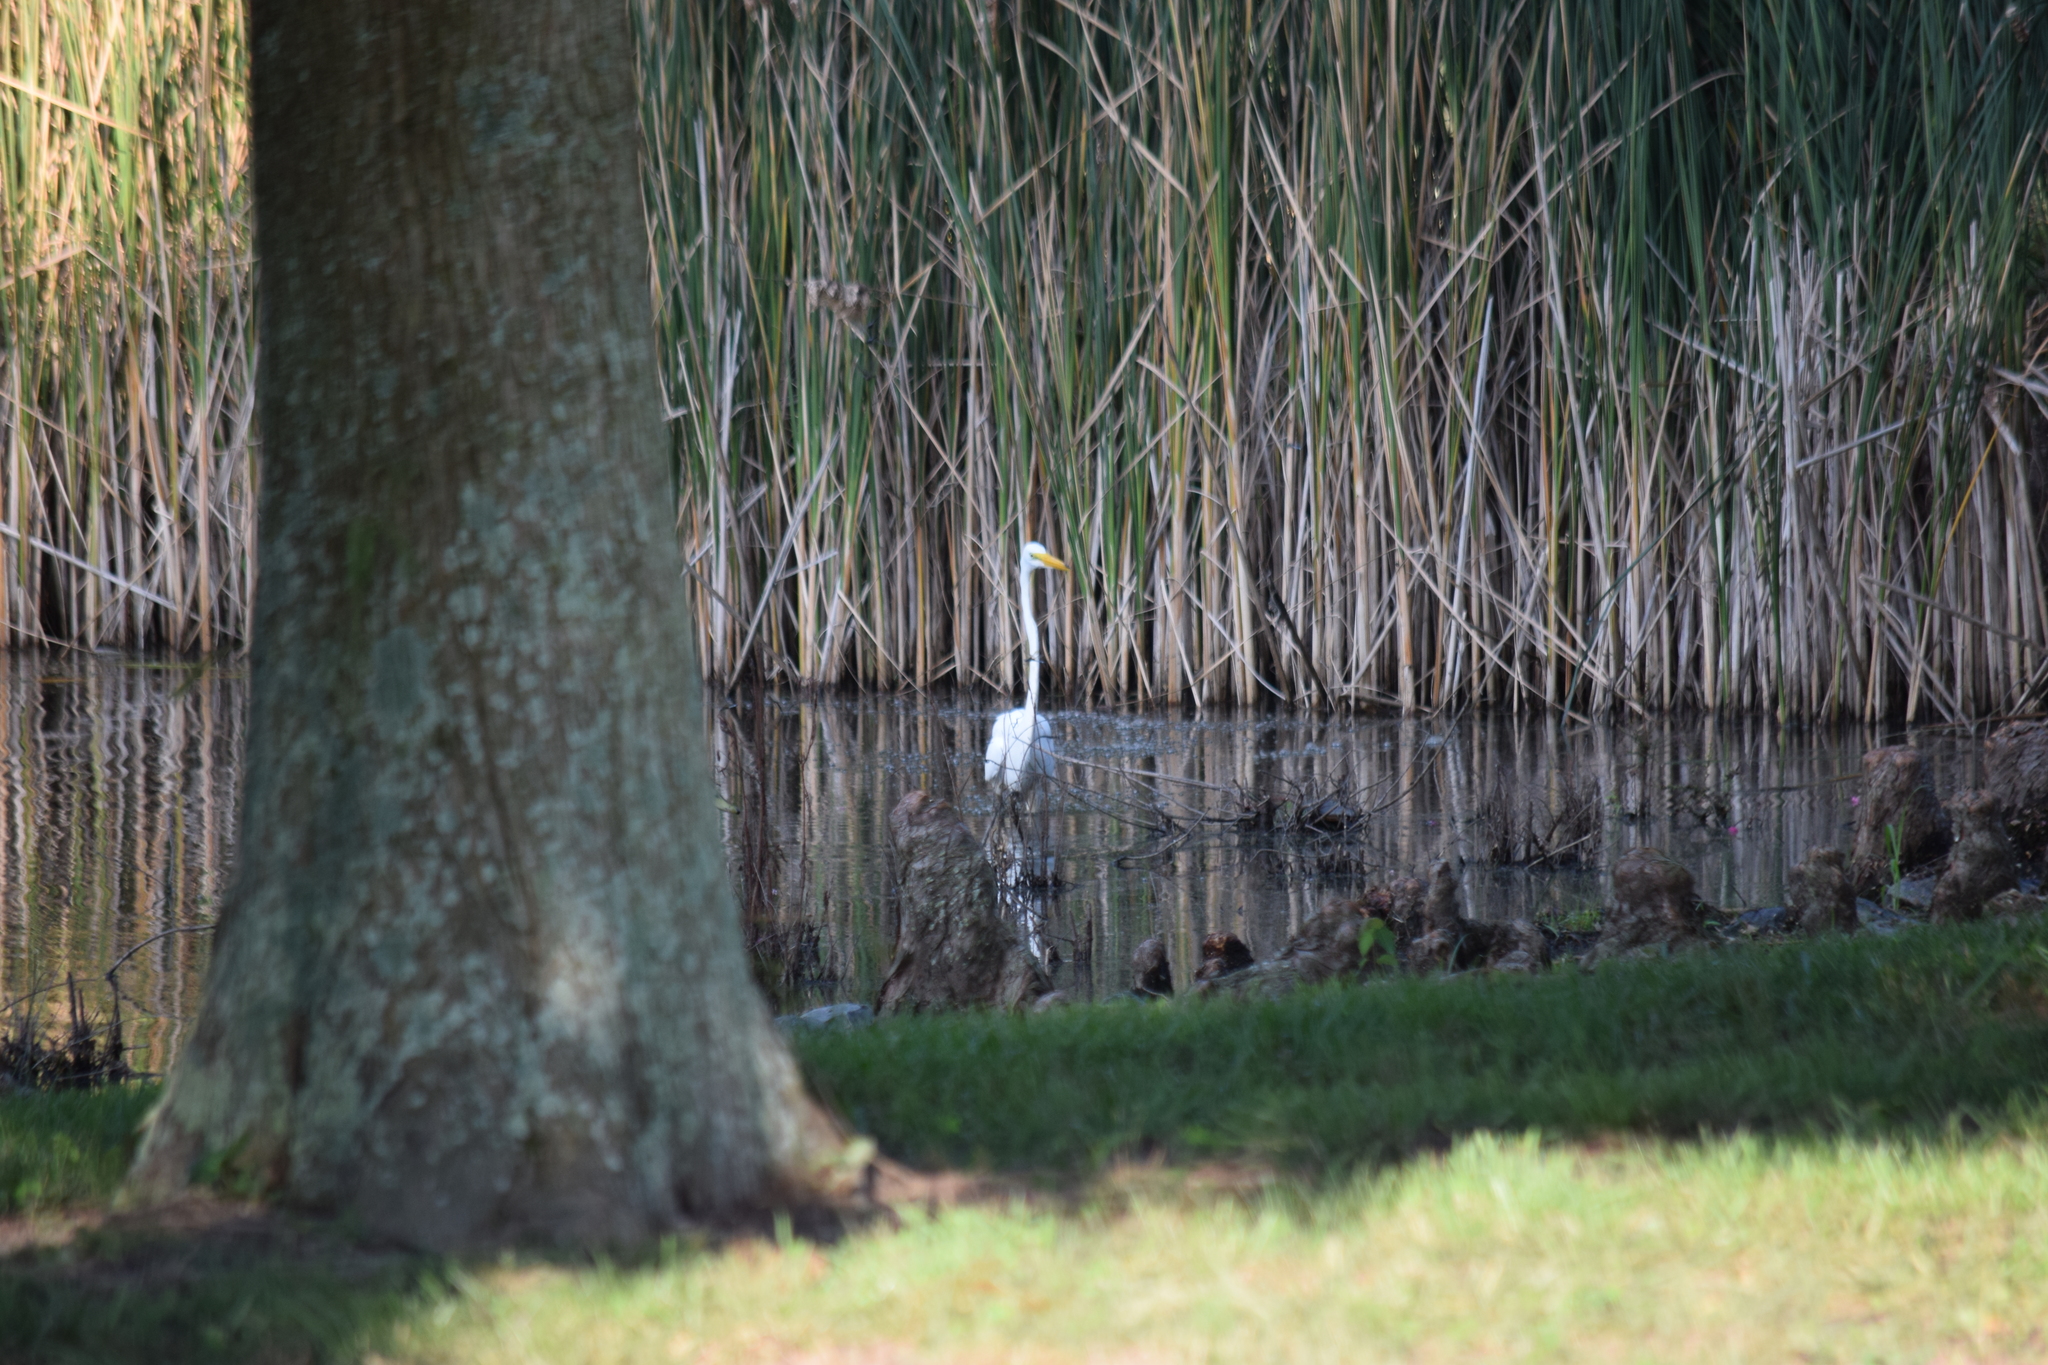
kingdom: Animalia
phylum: Chordata
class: Aves
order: Pelecaniformes
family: Ardeidae
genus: Ardea
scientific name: Ardea alba
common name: Great egret
